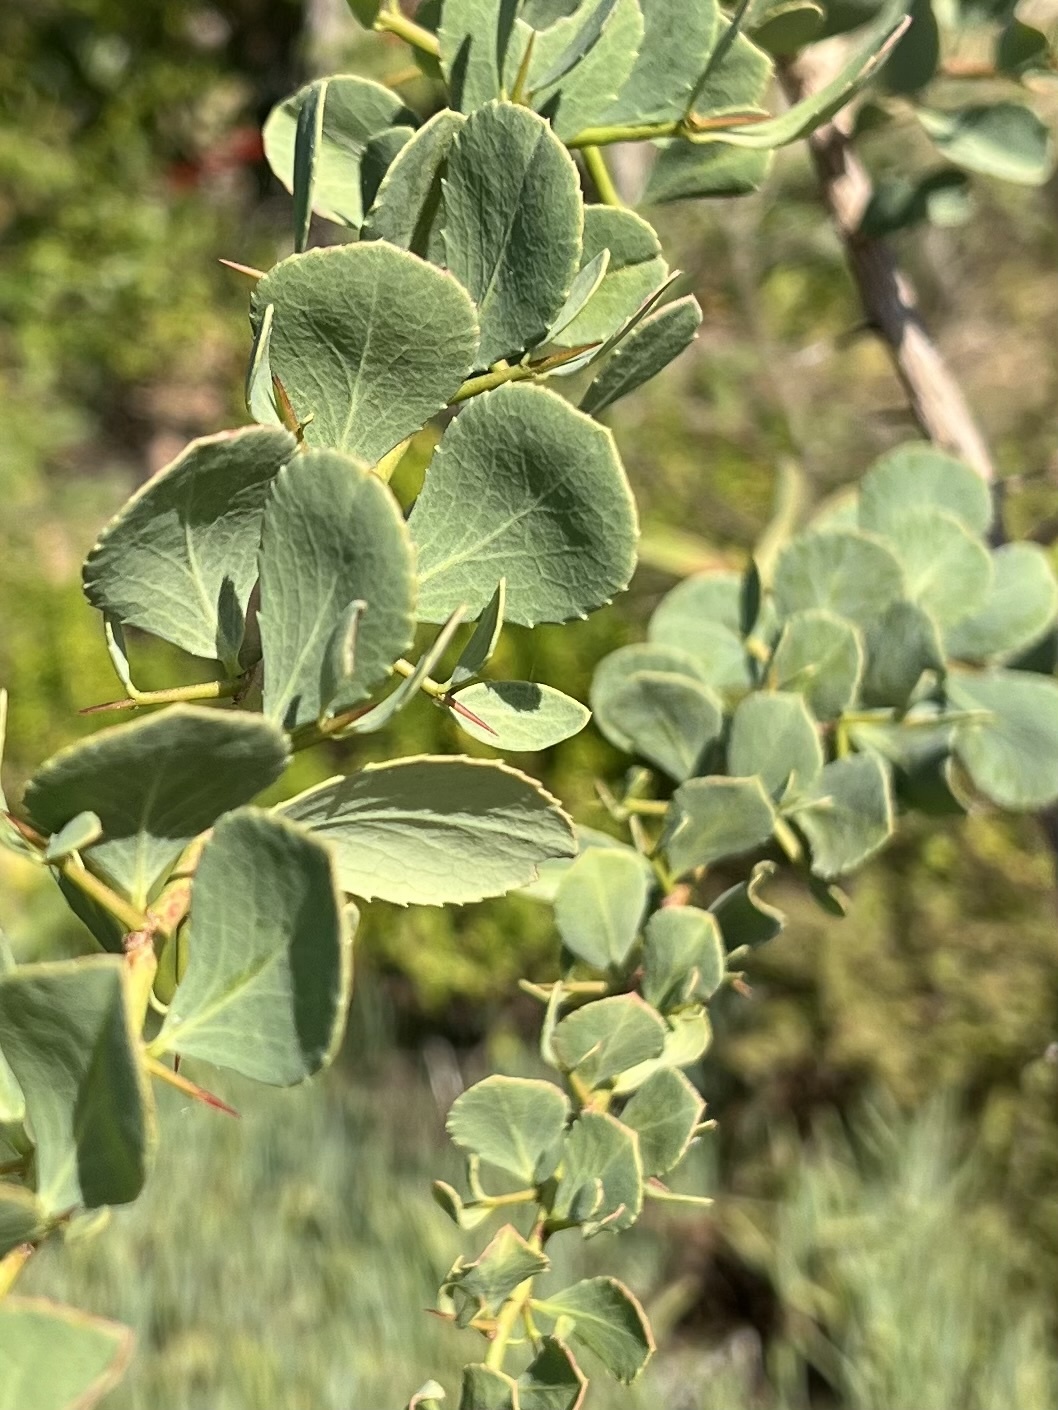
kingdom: Plantae
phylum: Tracheophyta
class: Magnoliopsida
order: Celastrales
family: Celastraceae
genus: Gymnosporia
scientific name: Gymnosporia glaucophylla
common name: Blue spike-thorn
